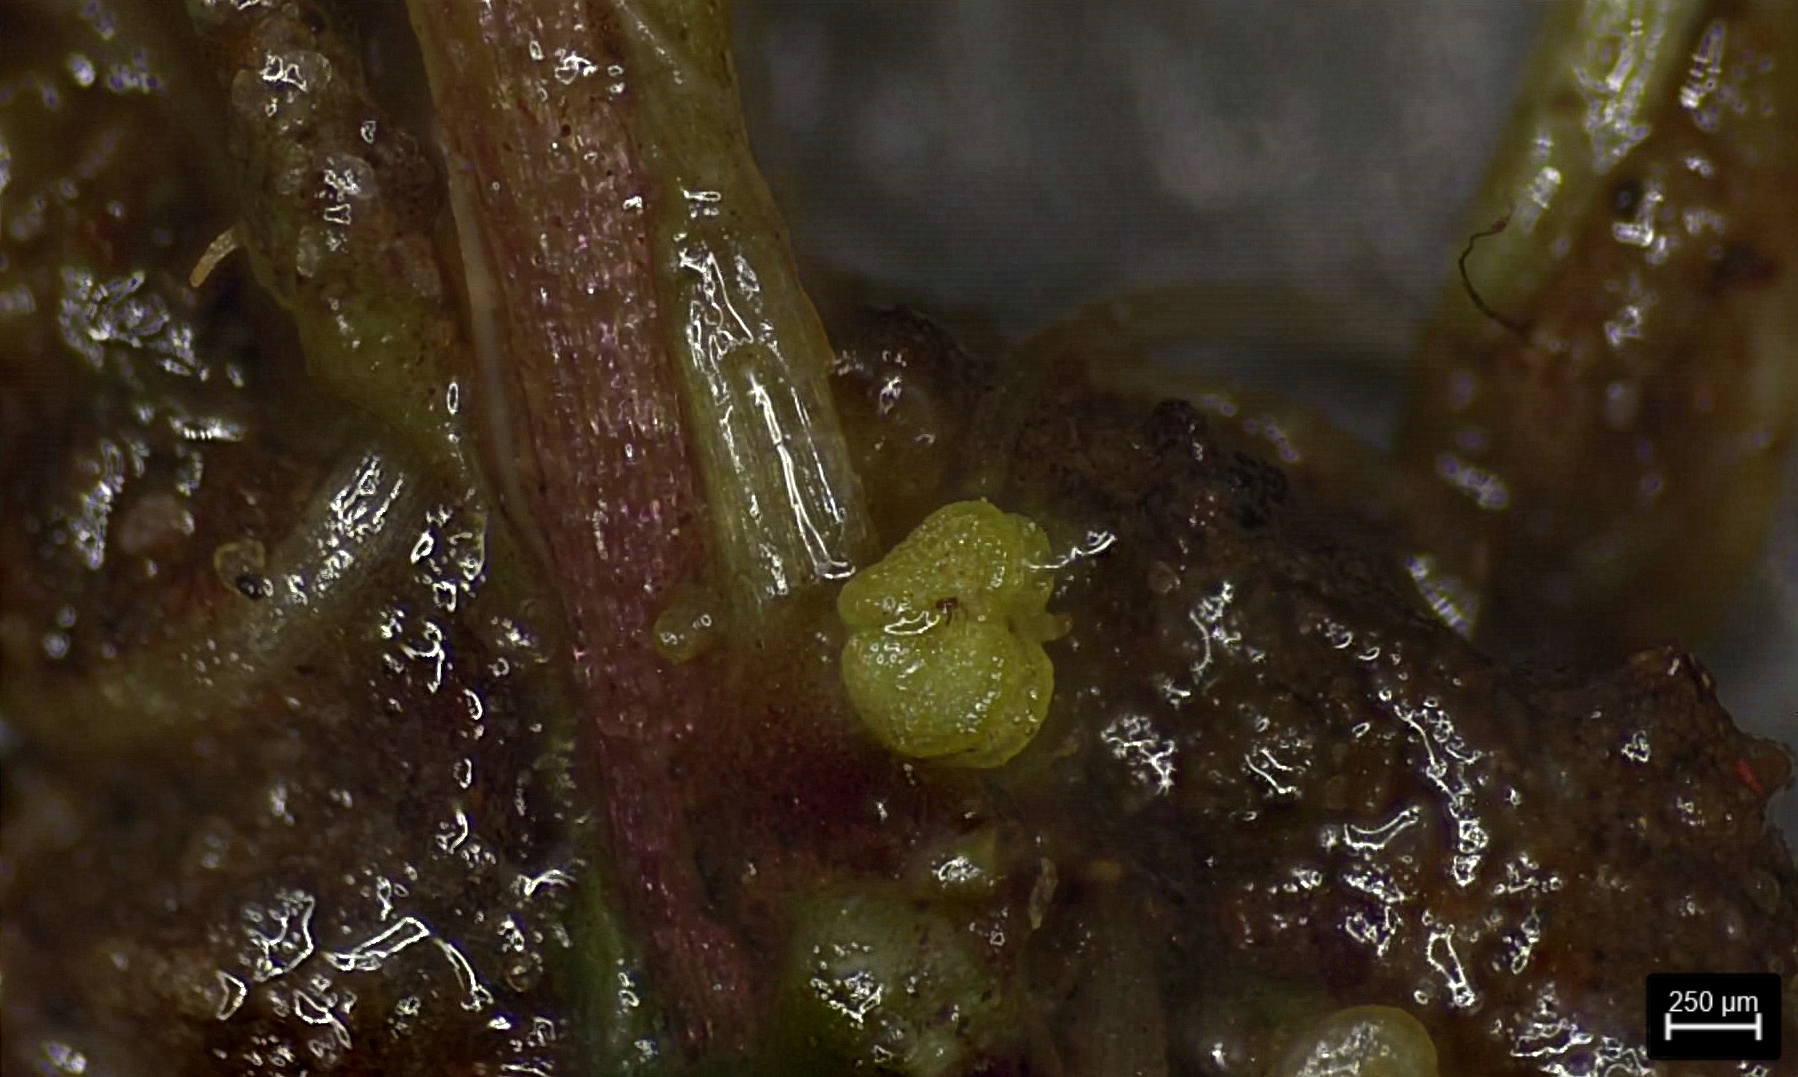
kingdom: Plantae
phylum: Tracheophyta
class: Magnoliopsida
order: Lamiales
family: Plantaginaceae
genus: Callitriche
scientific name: Callitriche peploides
